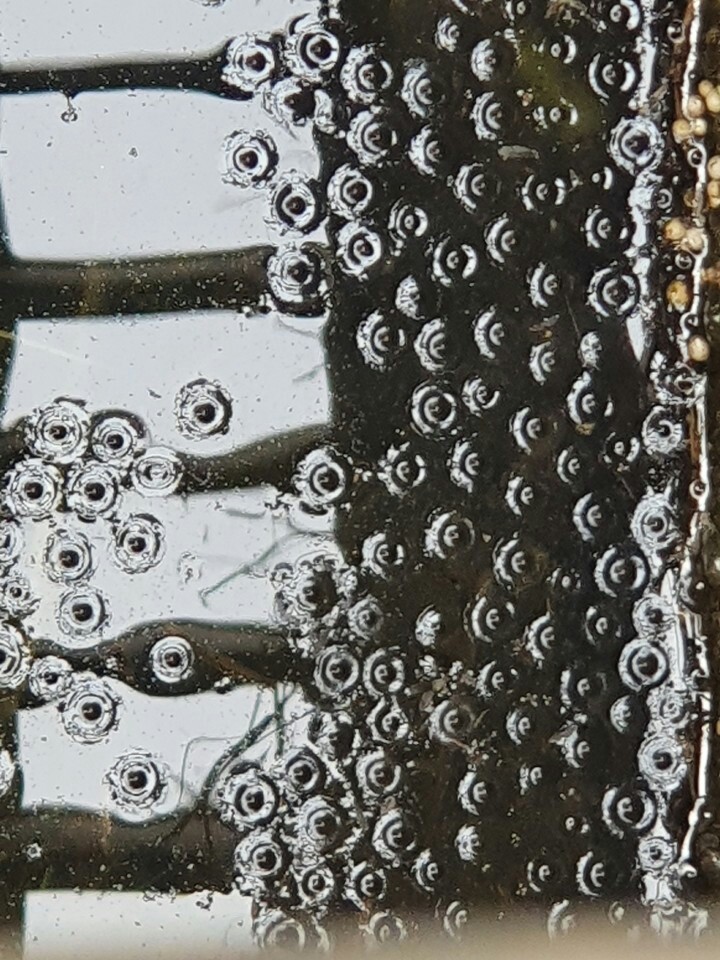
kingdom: Animalia
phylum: Chordata
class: Amphibia
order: Anura
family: Microhylidae
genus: Kaloula
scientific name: Kaloula borealis
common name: Boreal digging frog
